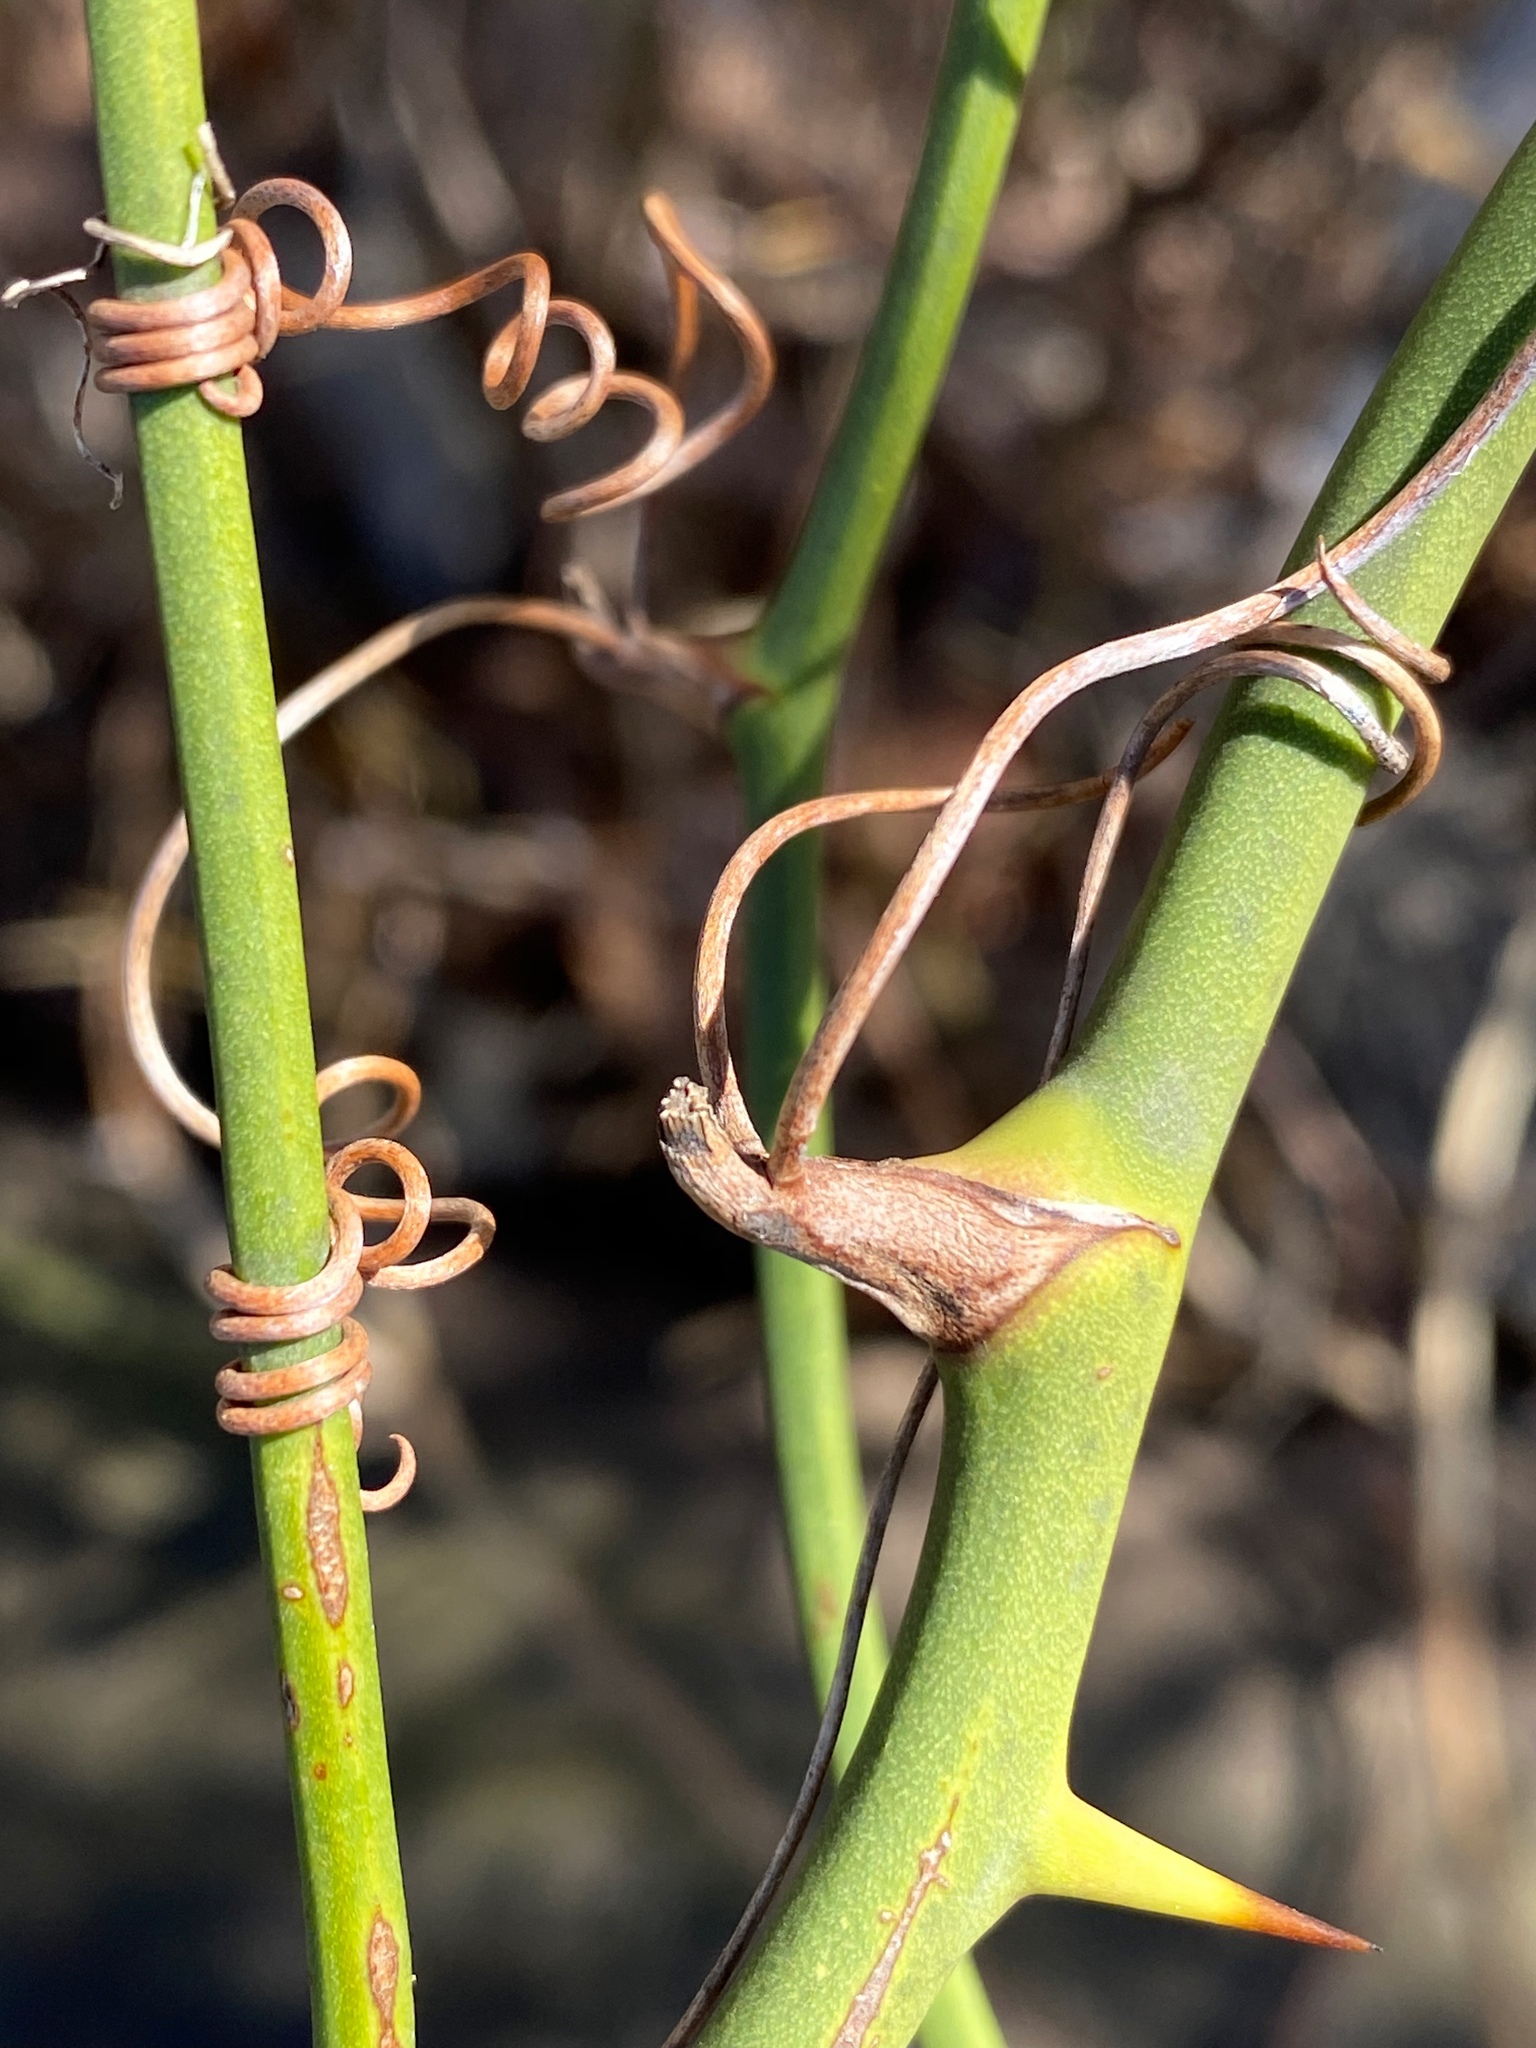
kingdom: Plantae
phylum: Tracheophyta
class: Liliopsida
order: Liliales
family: Smilacaceae
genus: Smilax
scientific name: Smilax rotundifolia
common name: Bullbriar
